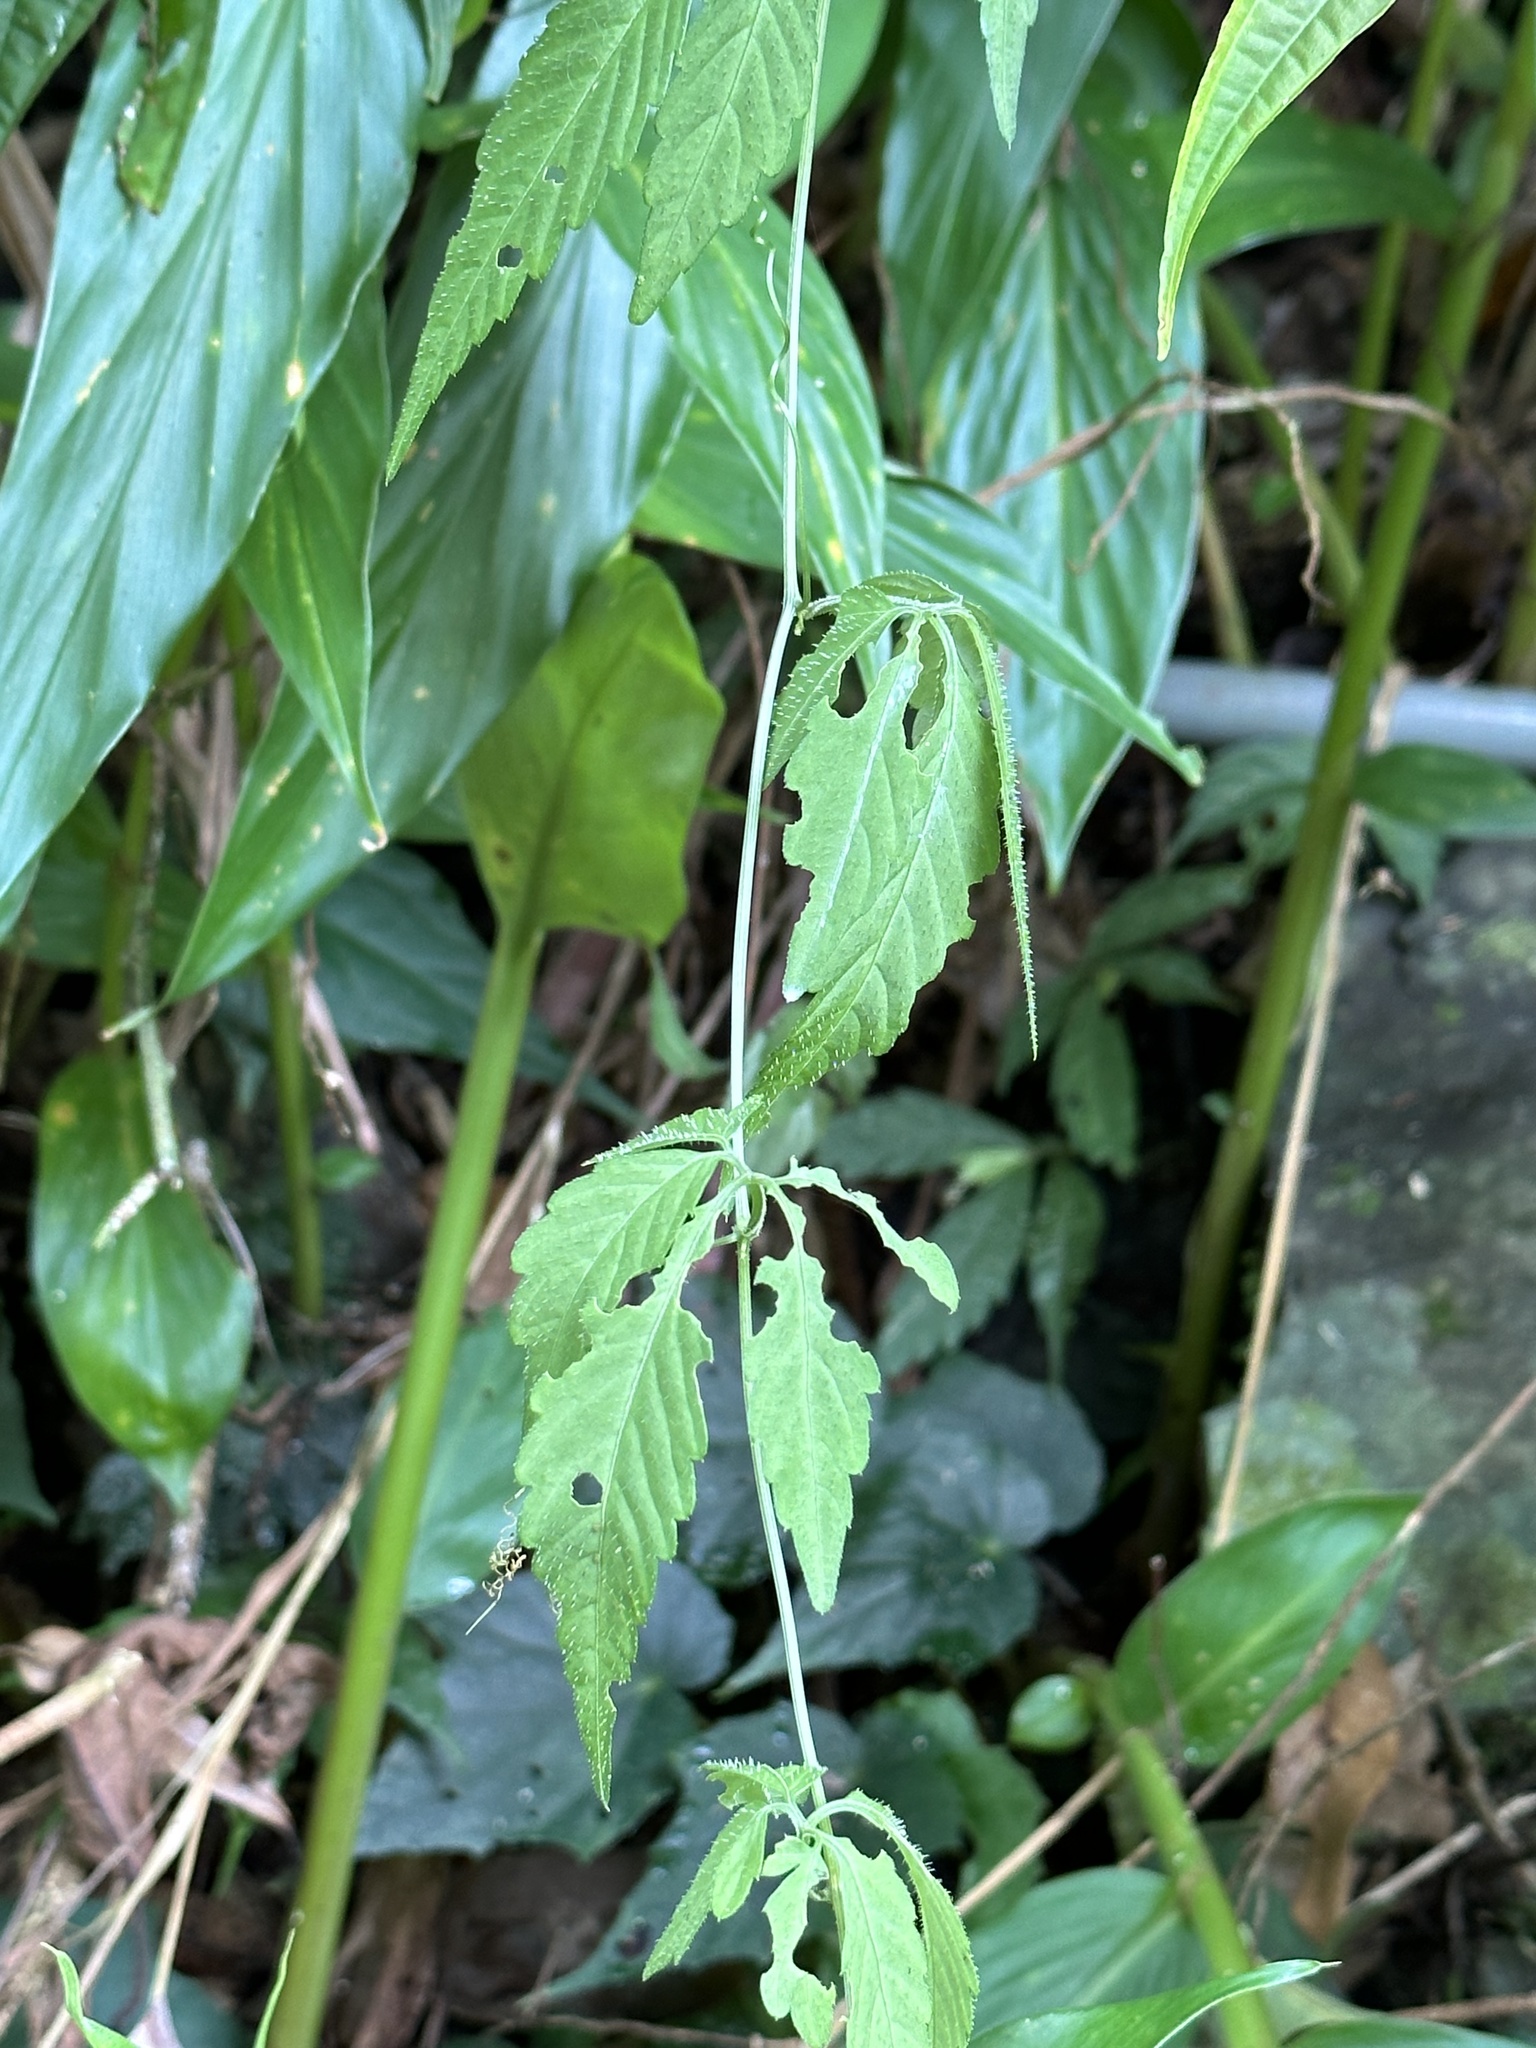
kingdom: Plantae
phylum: Tracheophyta
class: Magnoliopsida
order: Cucurbitales
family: Cucurbitaceae
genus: Gynostemma
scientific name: Gynostemma pentaphyllum
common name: Gynostemma
